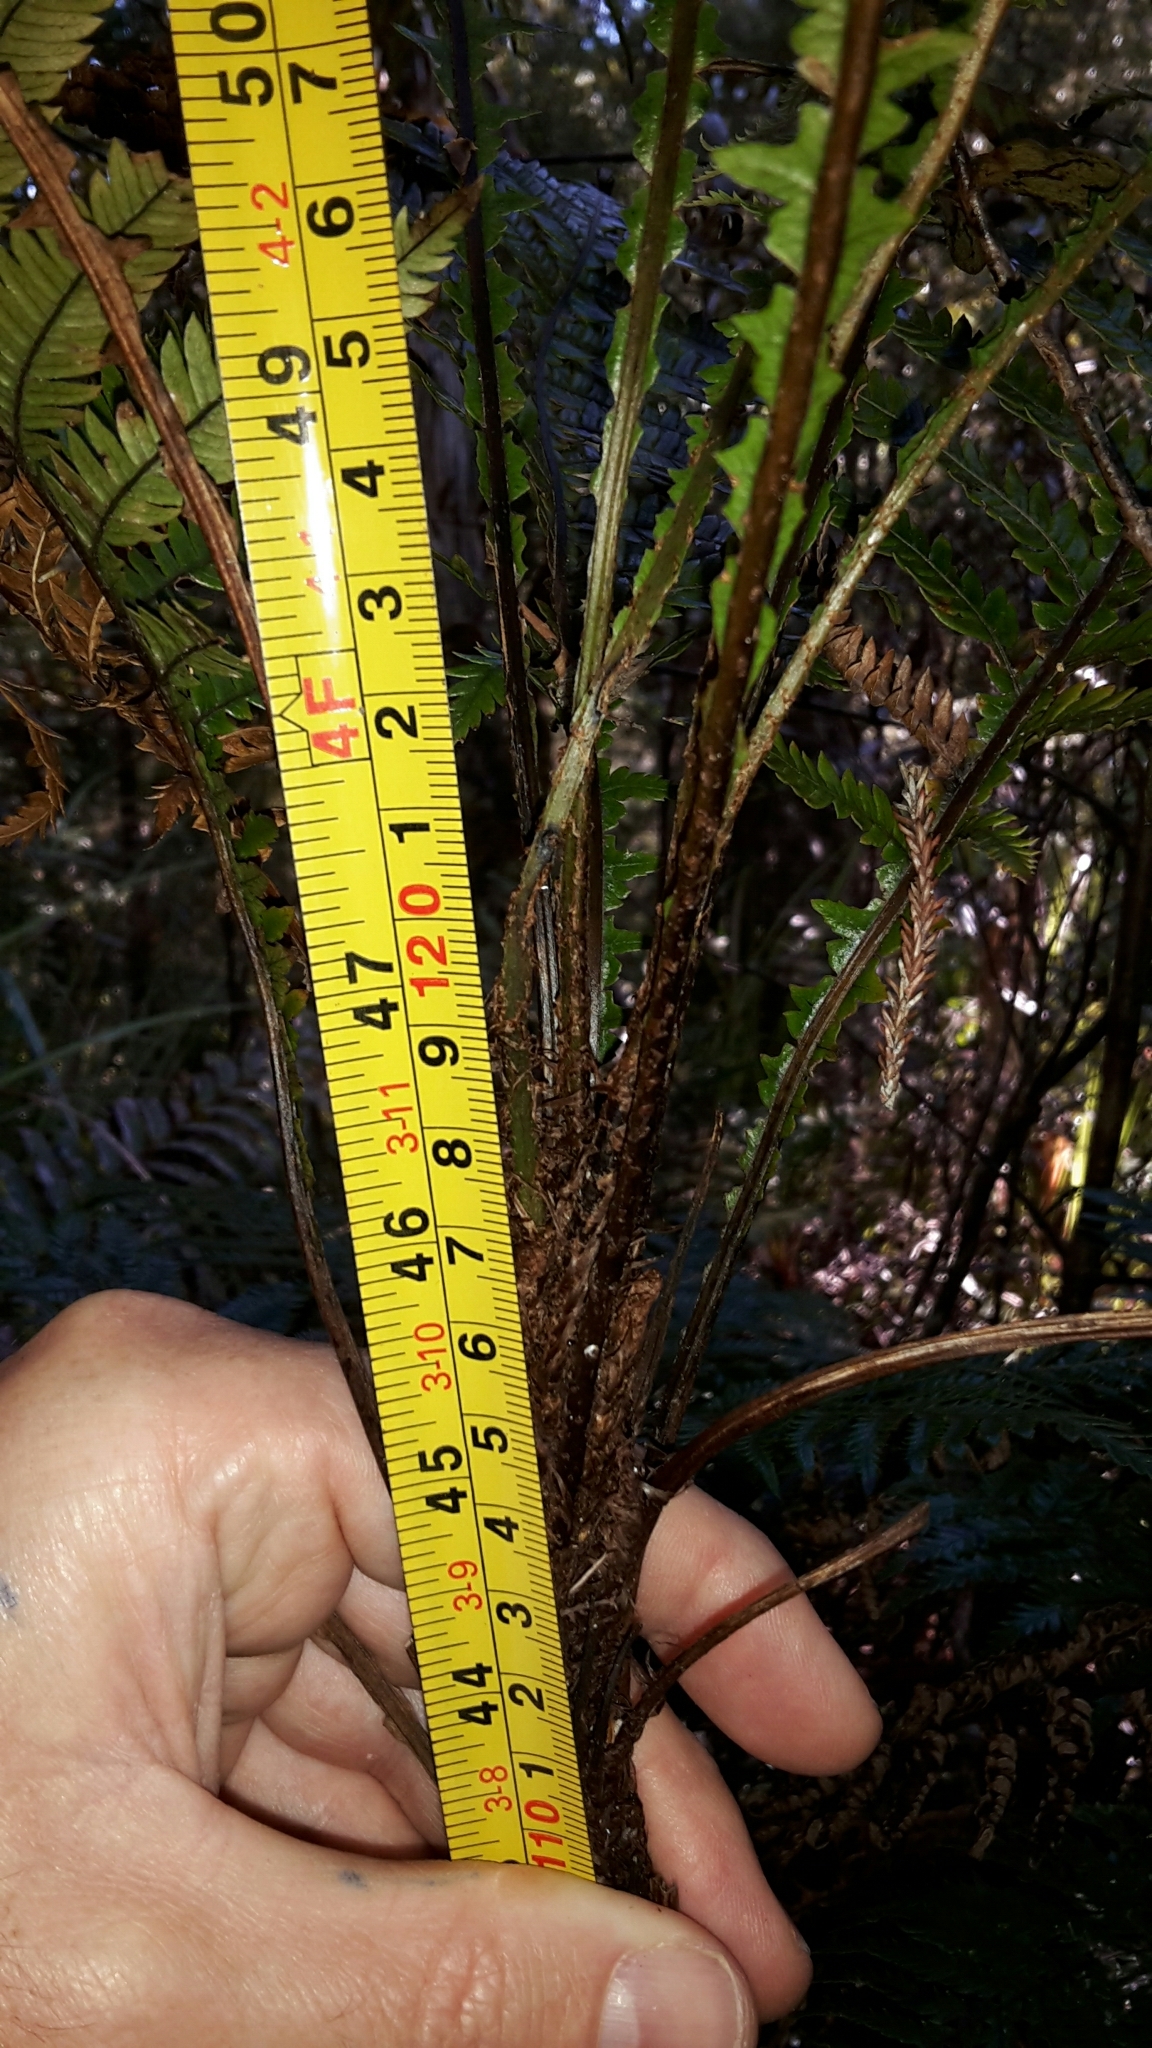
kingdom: Plantae
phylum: Tracheophyta
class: Polypodiopsida
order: Polypodiales
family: Blechnaceae
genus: Diploblechnum
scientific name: Diploblechnum fraseri
